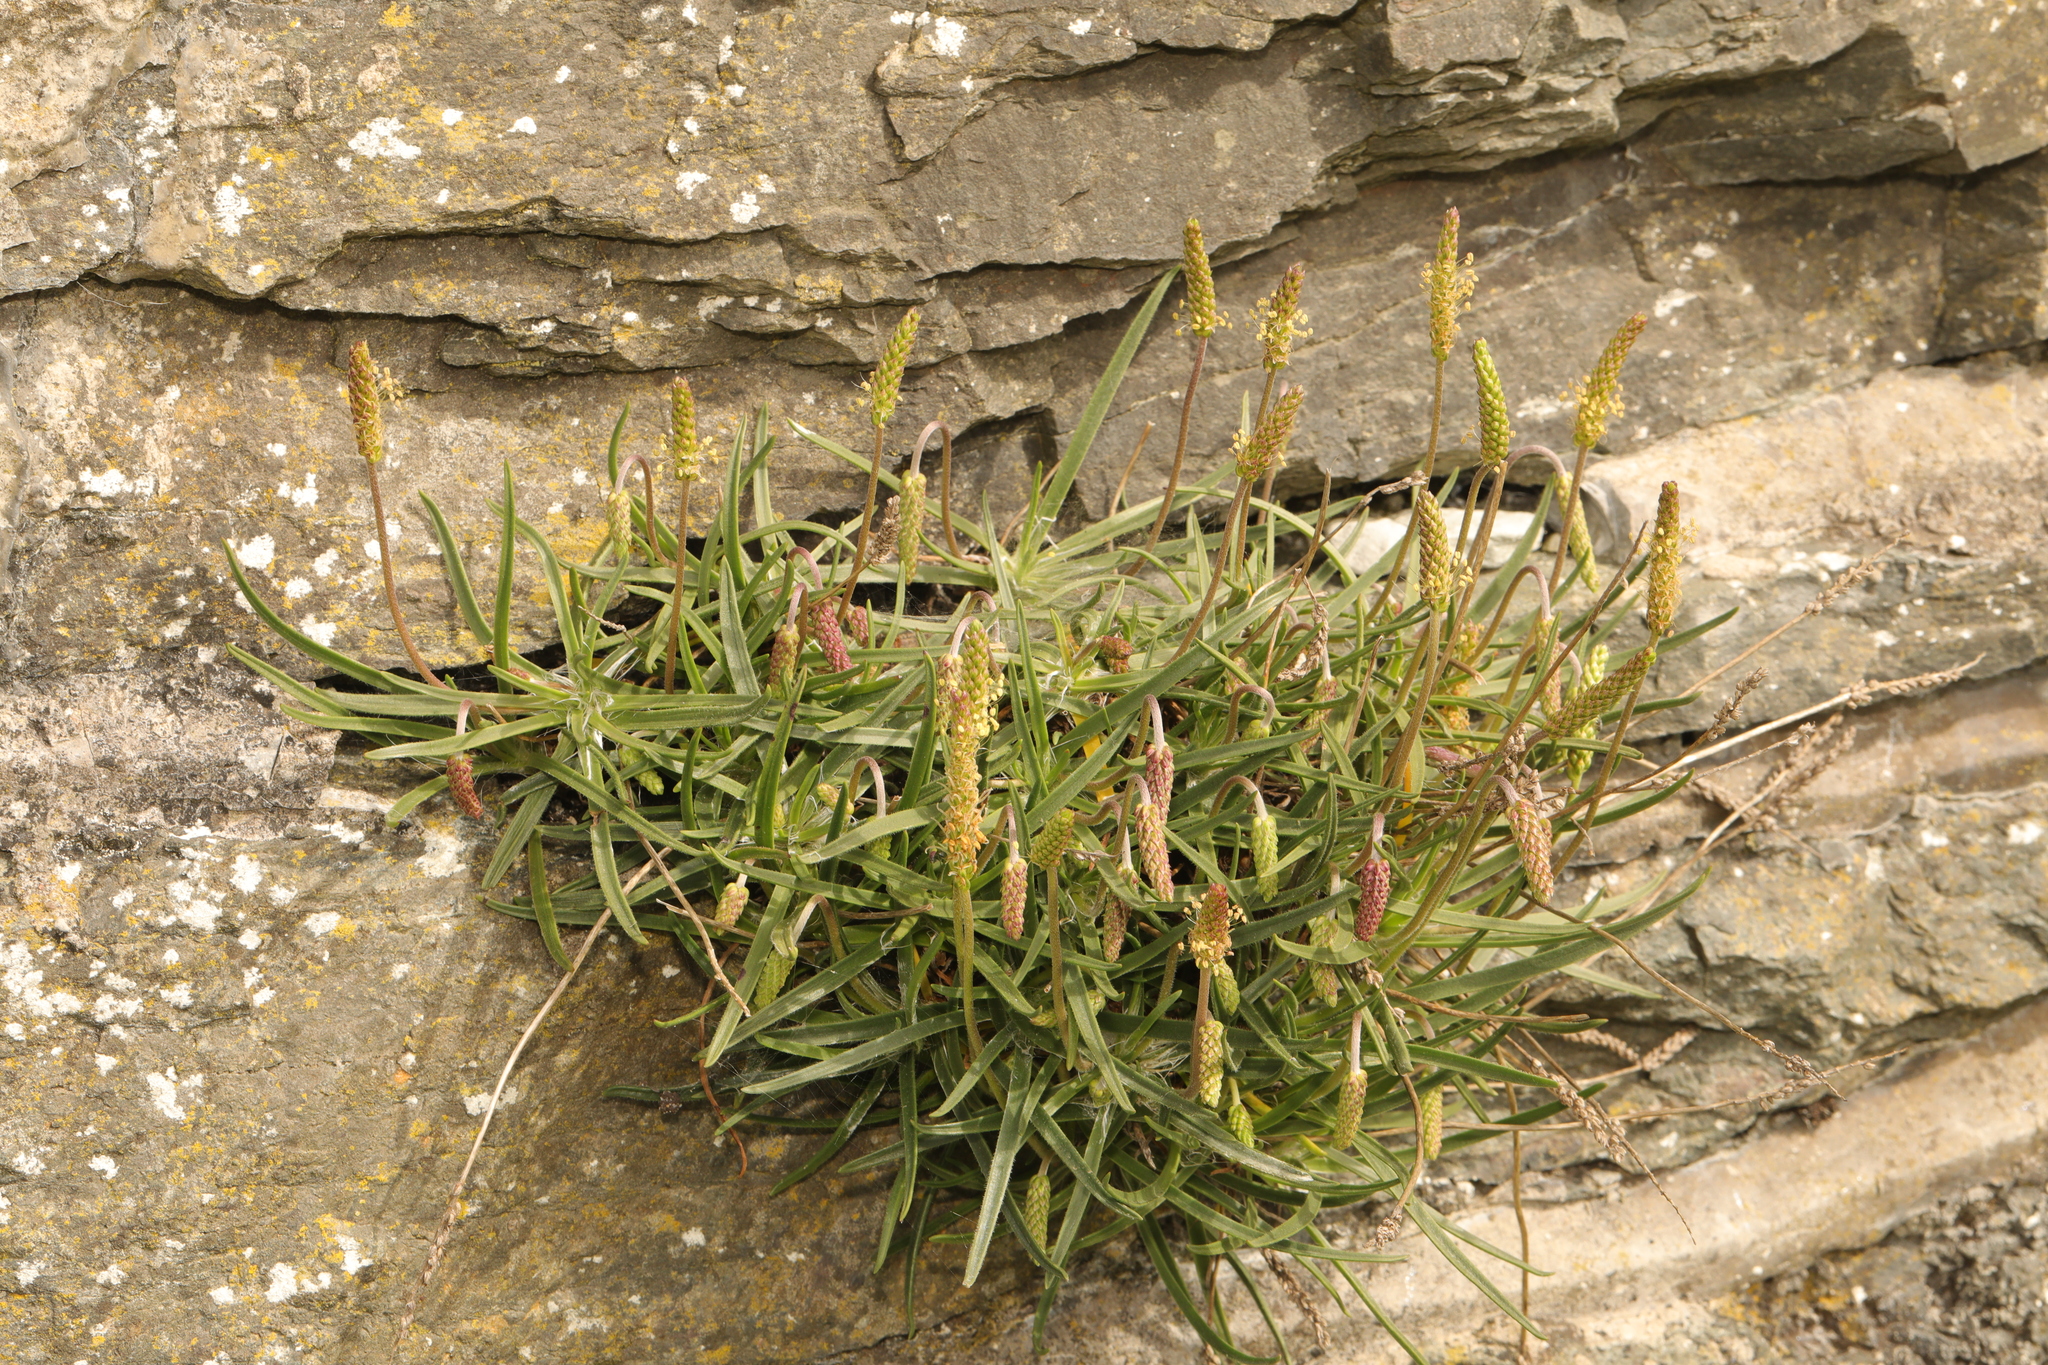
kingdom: Plantae
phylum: Tracheophyta
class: Magnoliopsida
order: Lamiales
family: Plantaginaceae
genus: Plantago
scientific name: Plantago maritima
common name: Sea plantain
